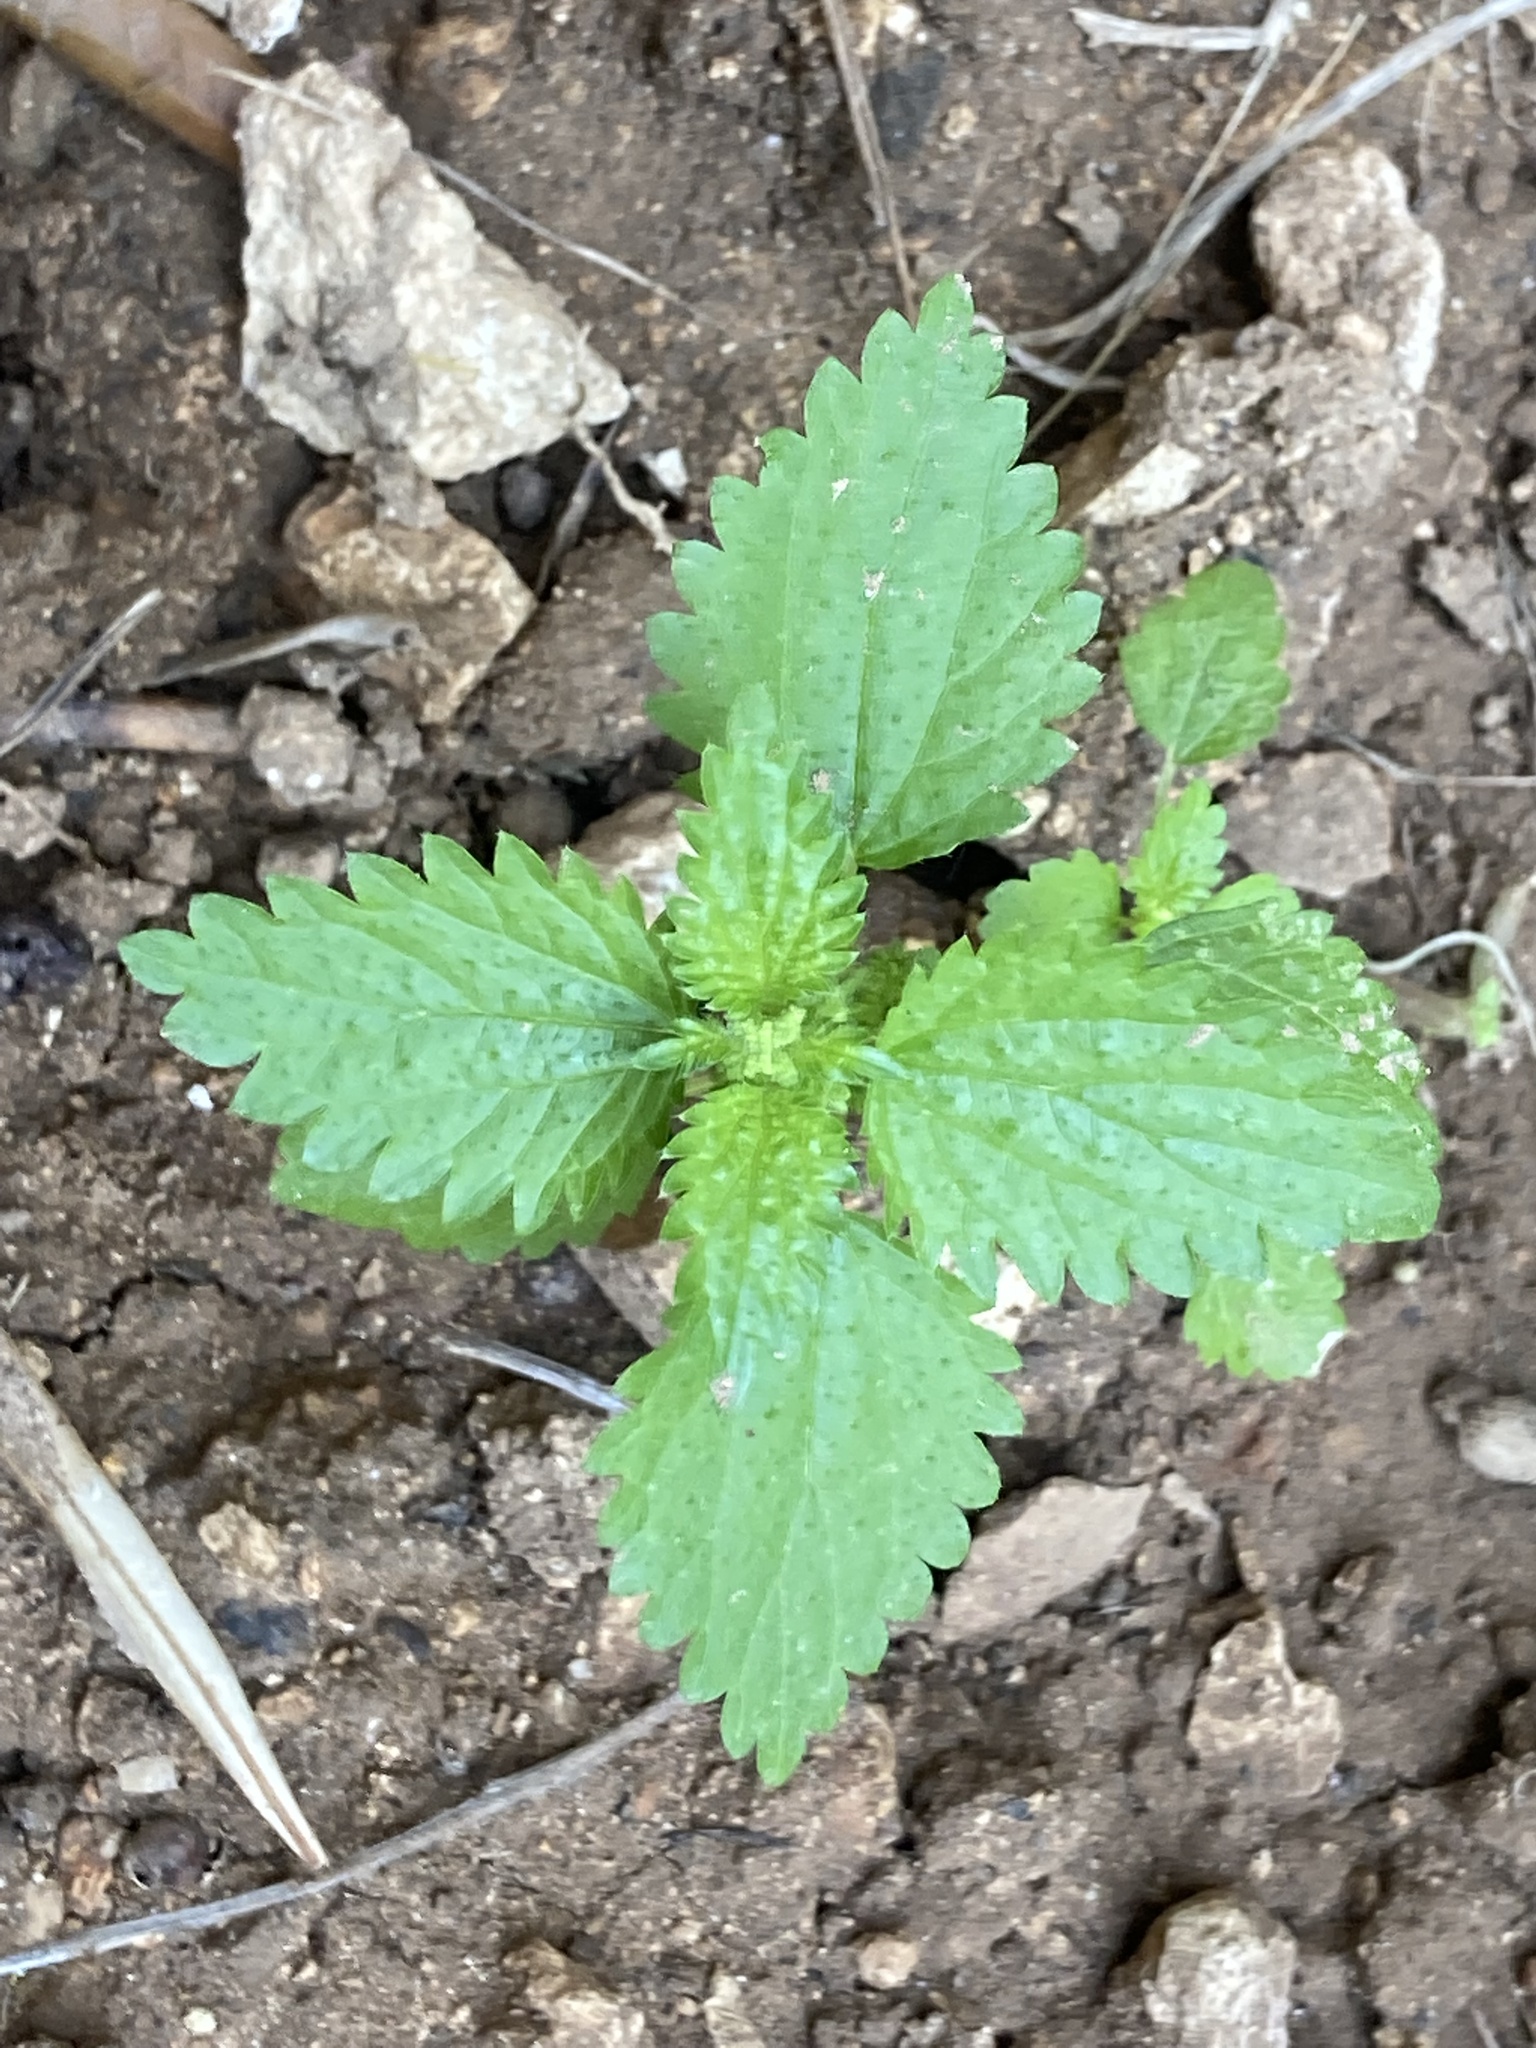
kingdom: Plantae
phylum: Tracheophyta
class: Magnoliopsida
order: Rosales
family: Urticaceae
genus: Urtica
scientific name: Urtica membranacea
